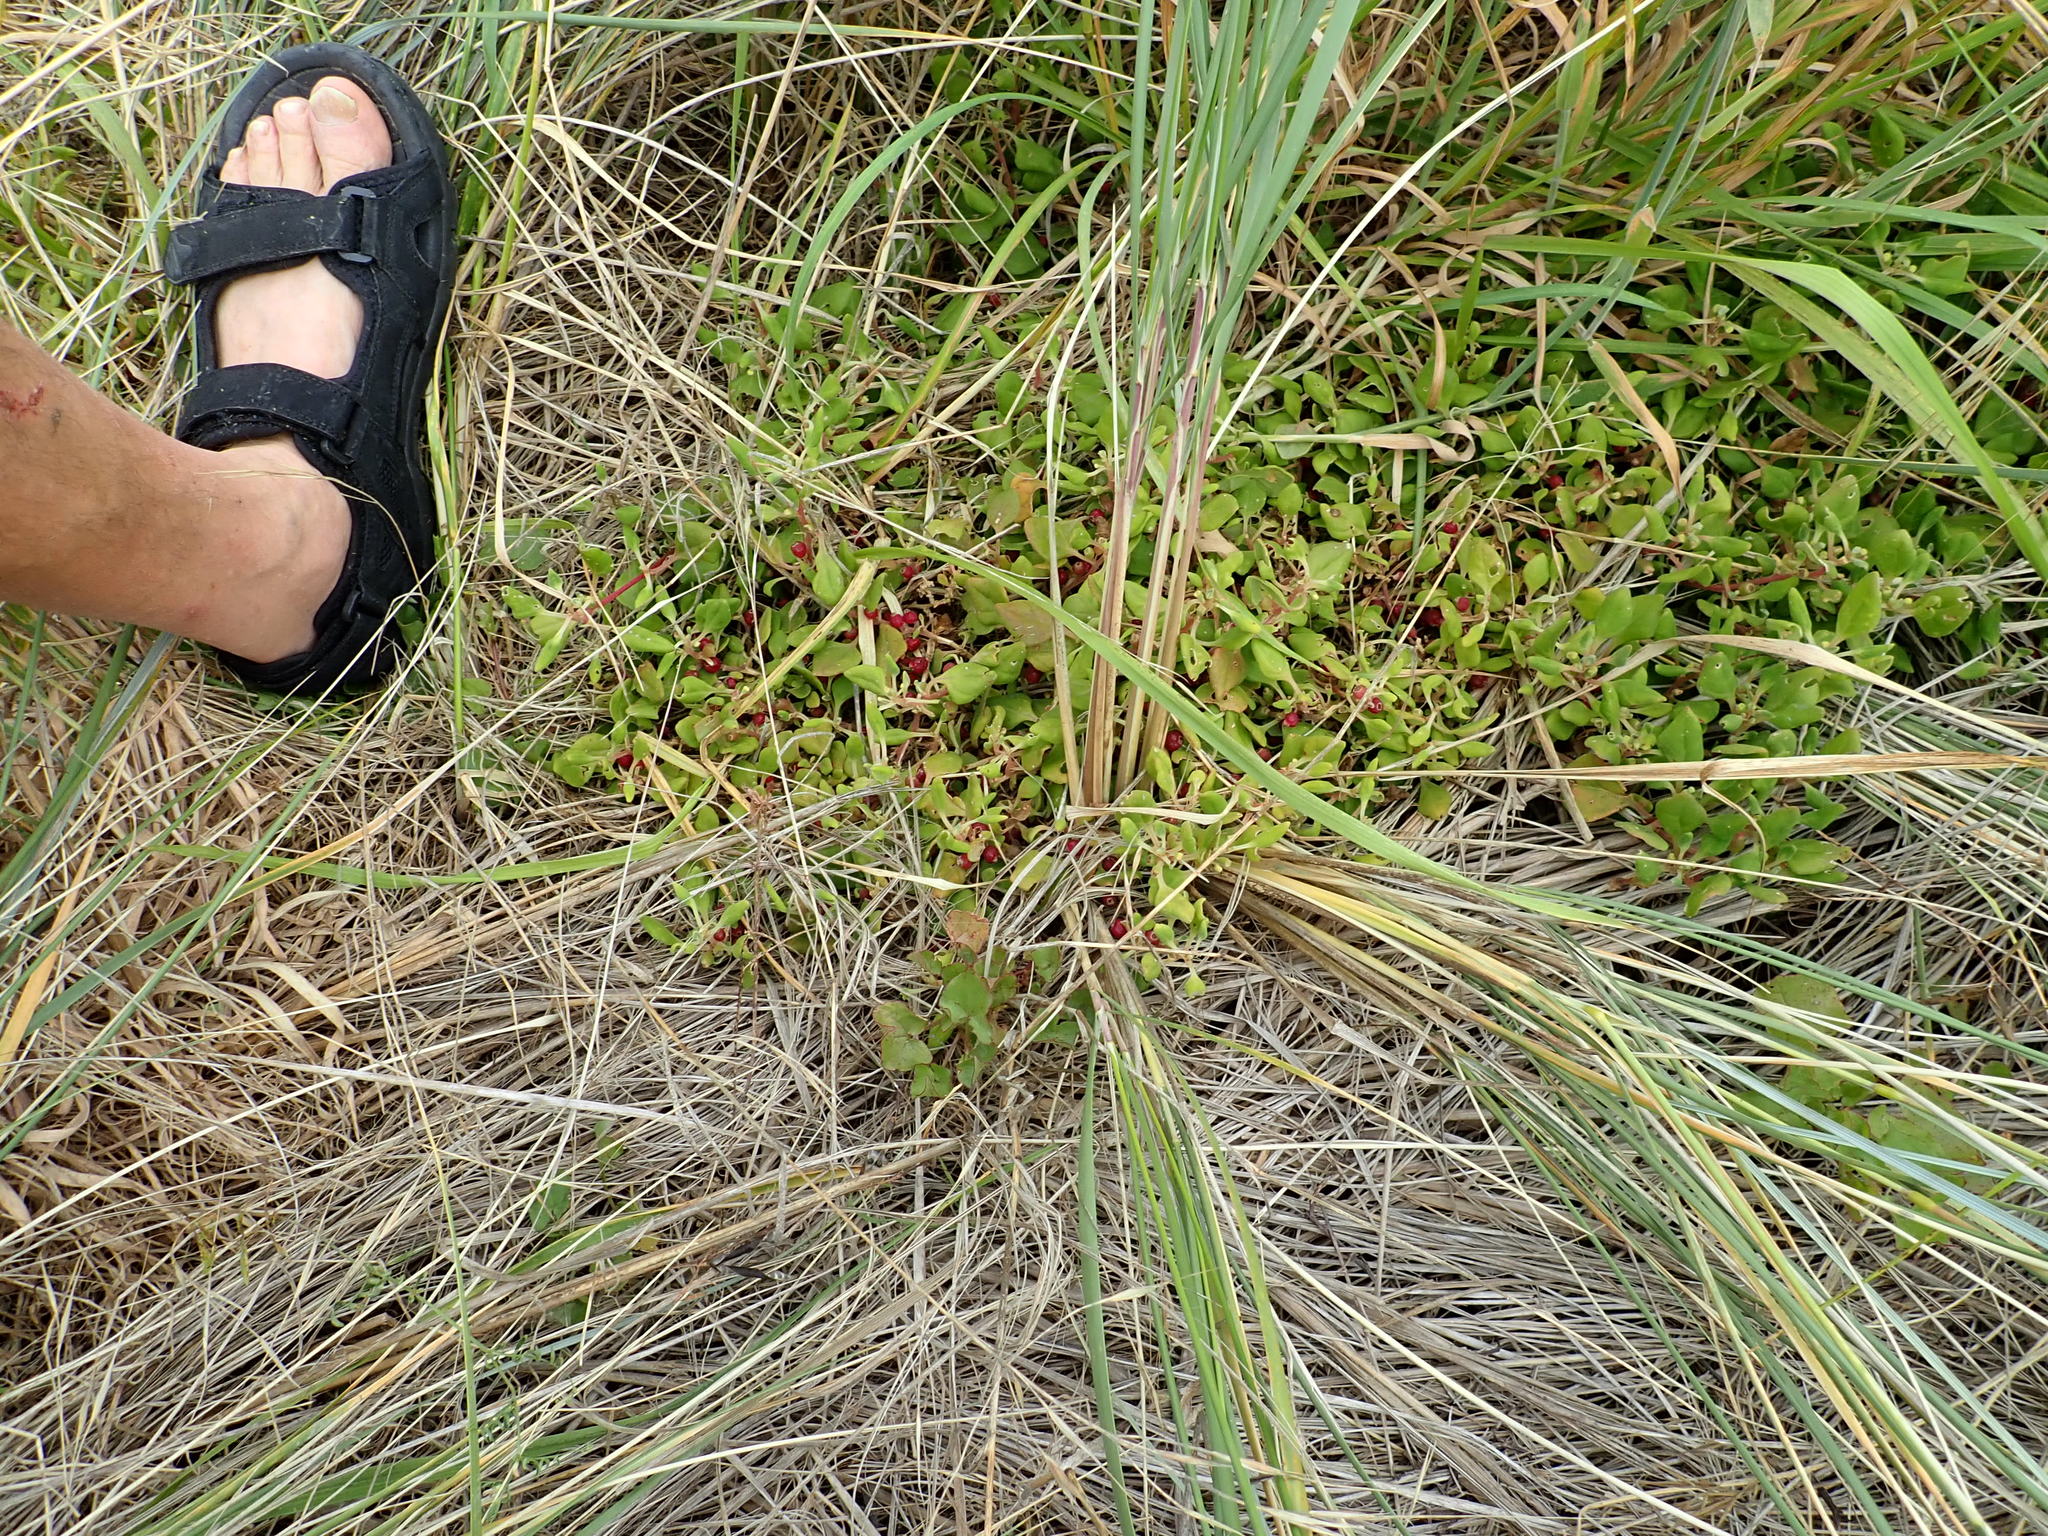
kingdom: Plantae
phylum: Tracheophyta
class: Magnoliopsida
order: Caryophyllales
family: Aizoaceae
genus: Tetragonia
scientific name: Tetragonia implexicoma
